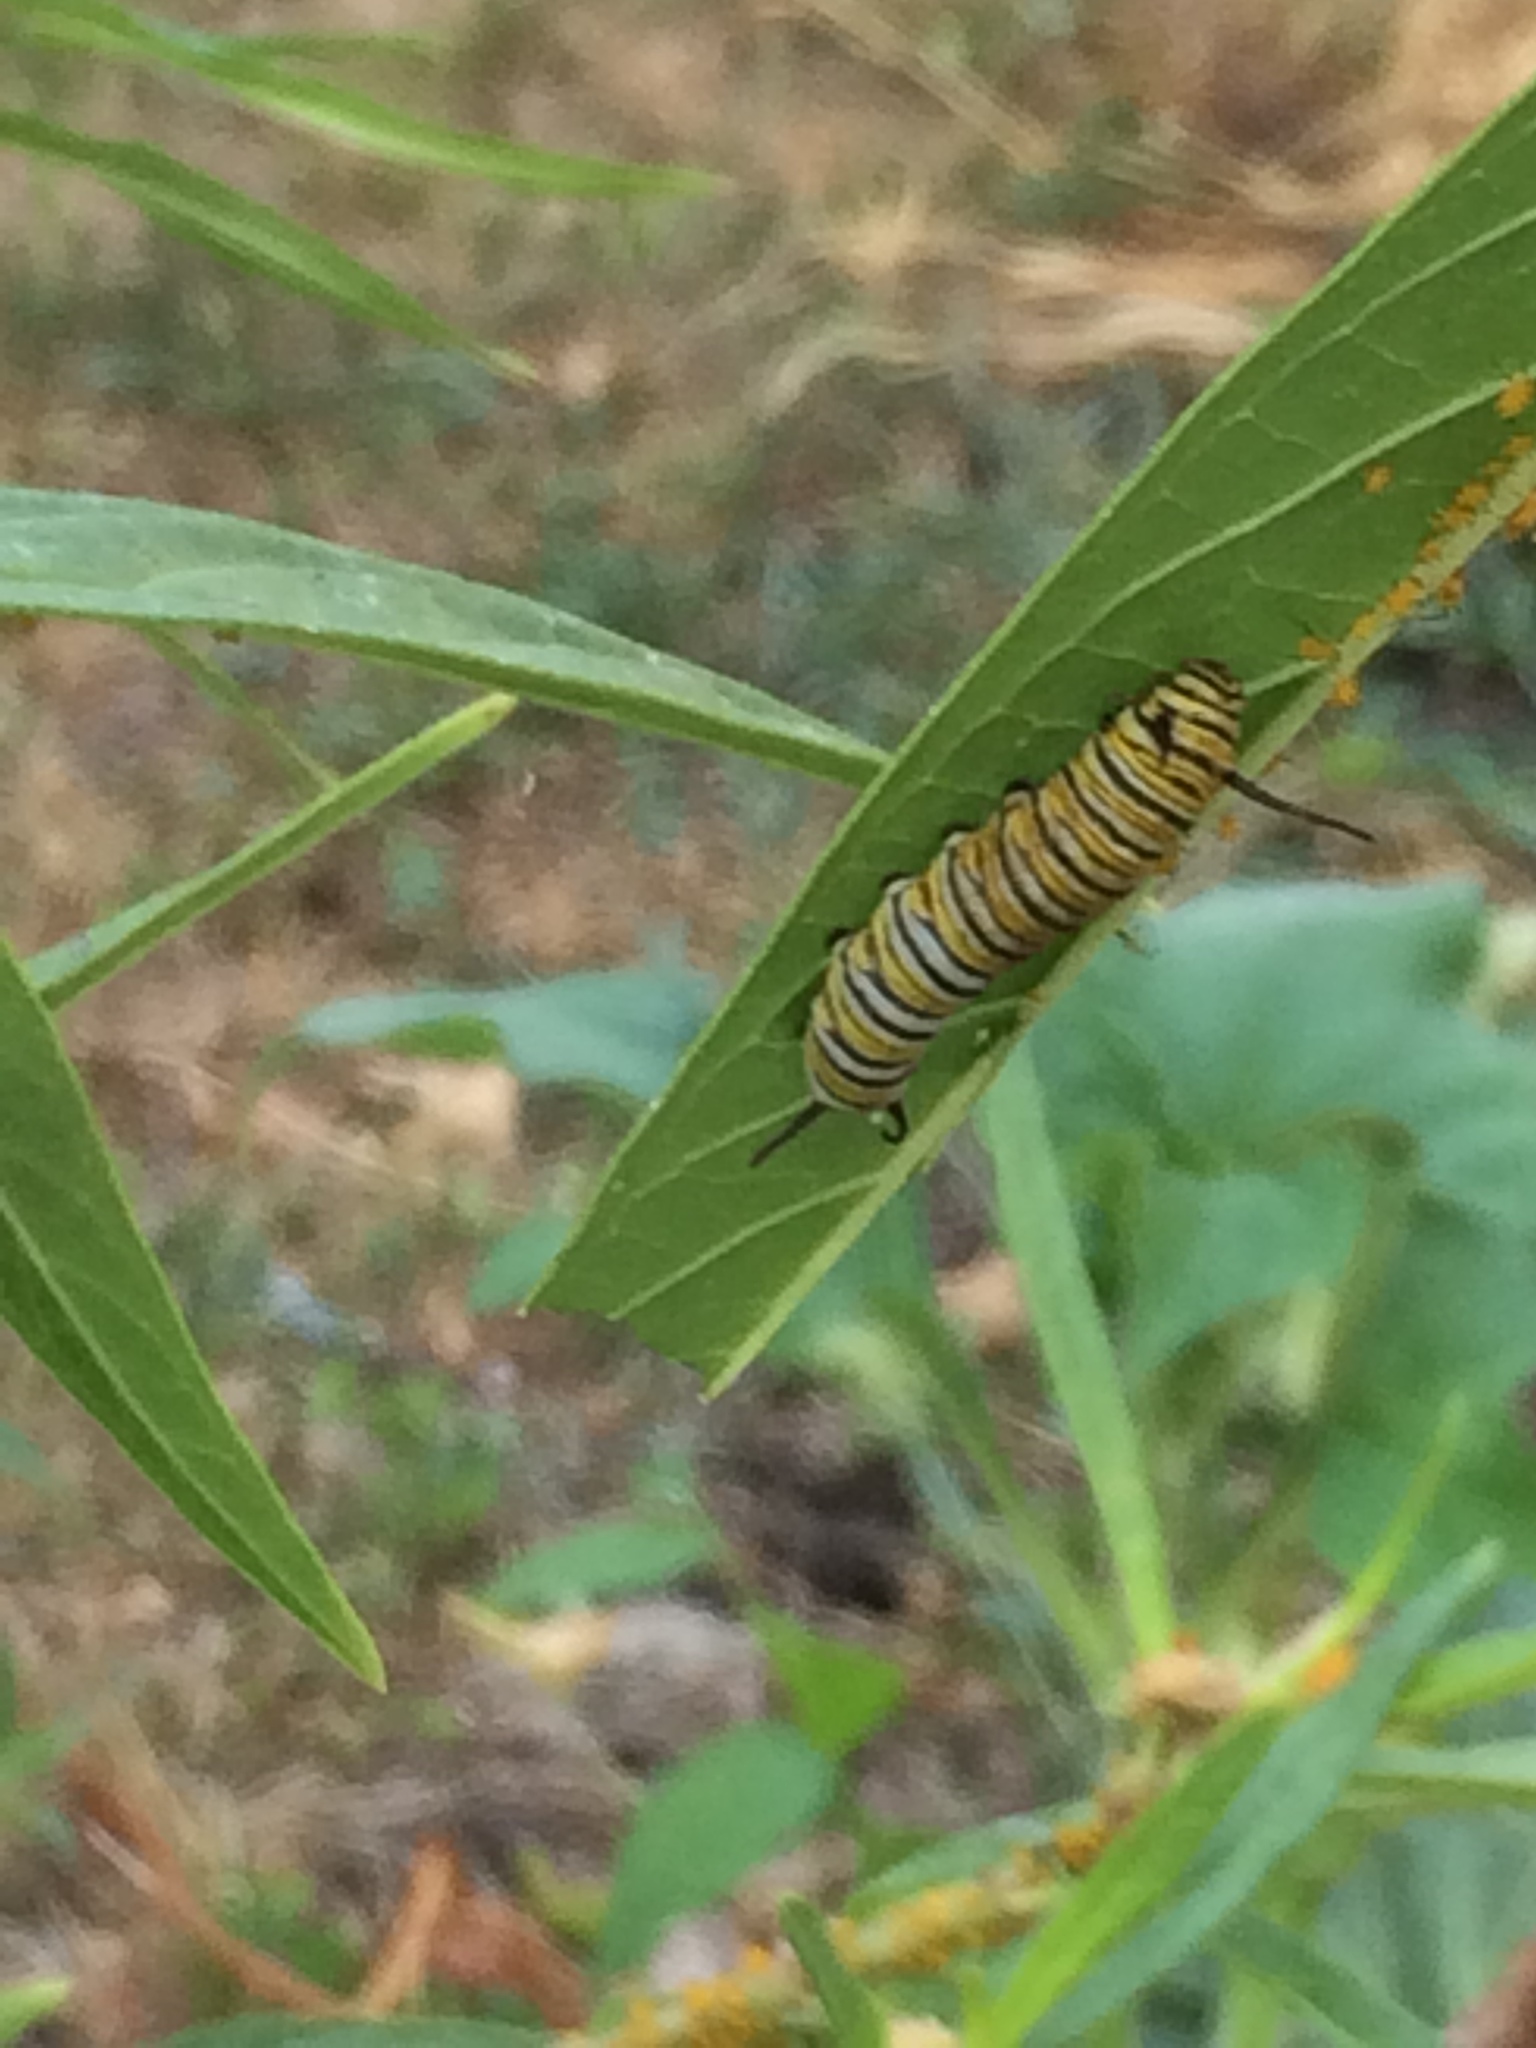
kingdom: Animalia
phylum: Arthropoda
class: Insecta
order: Lepidoptera
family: Nymphalidae
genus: Danaus
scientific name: Danaus plexippus
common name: Monarch
